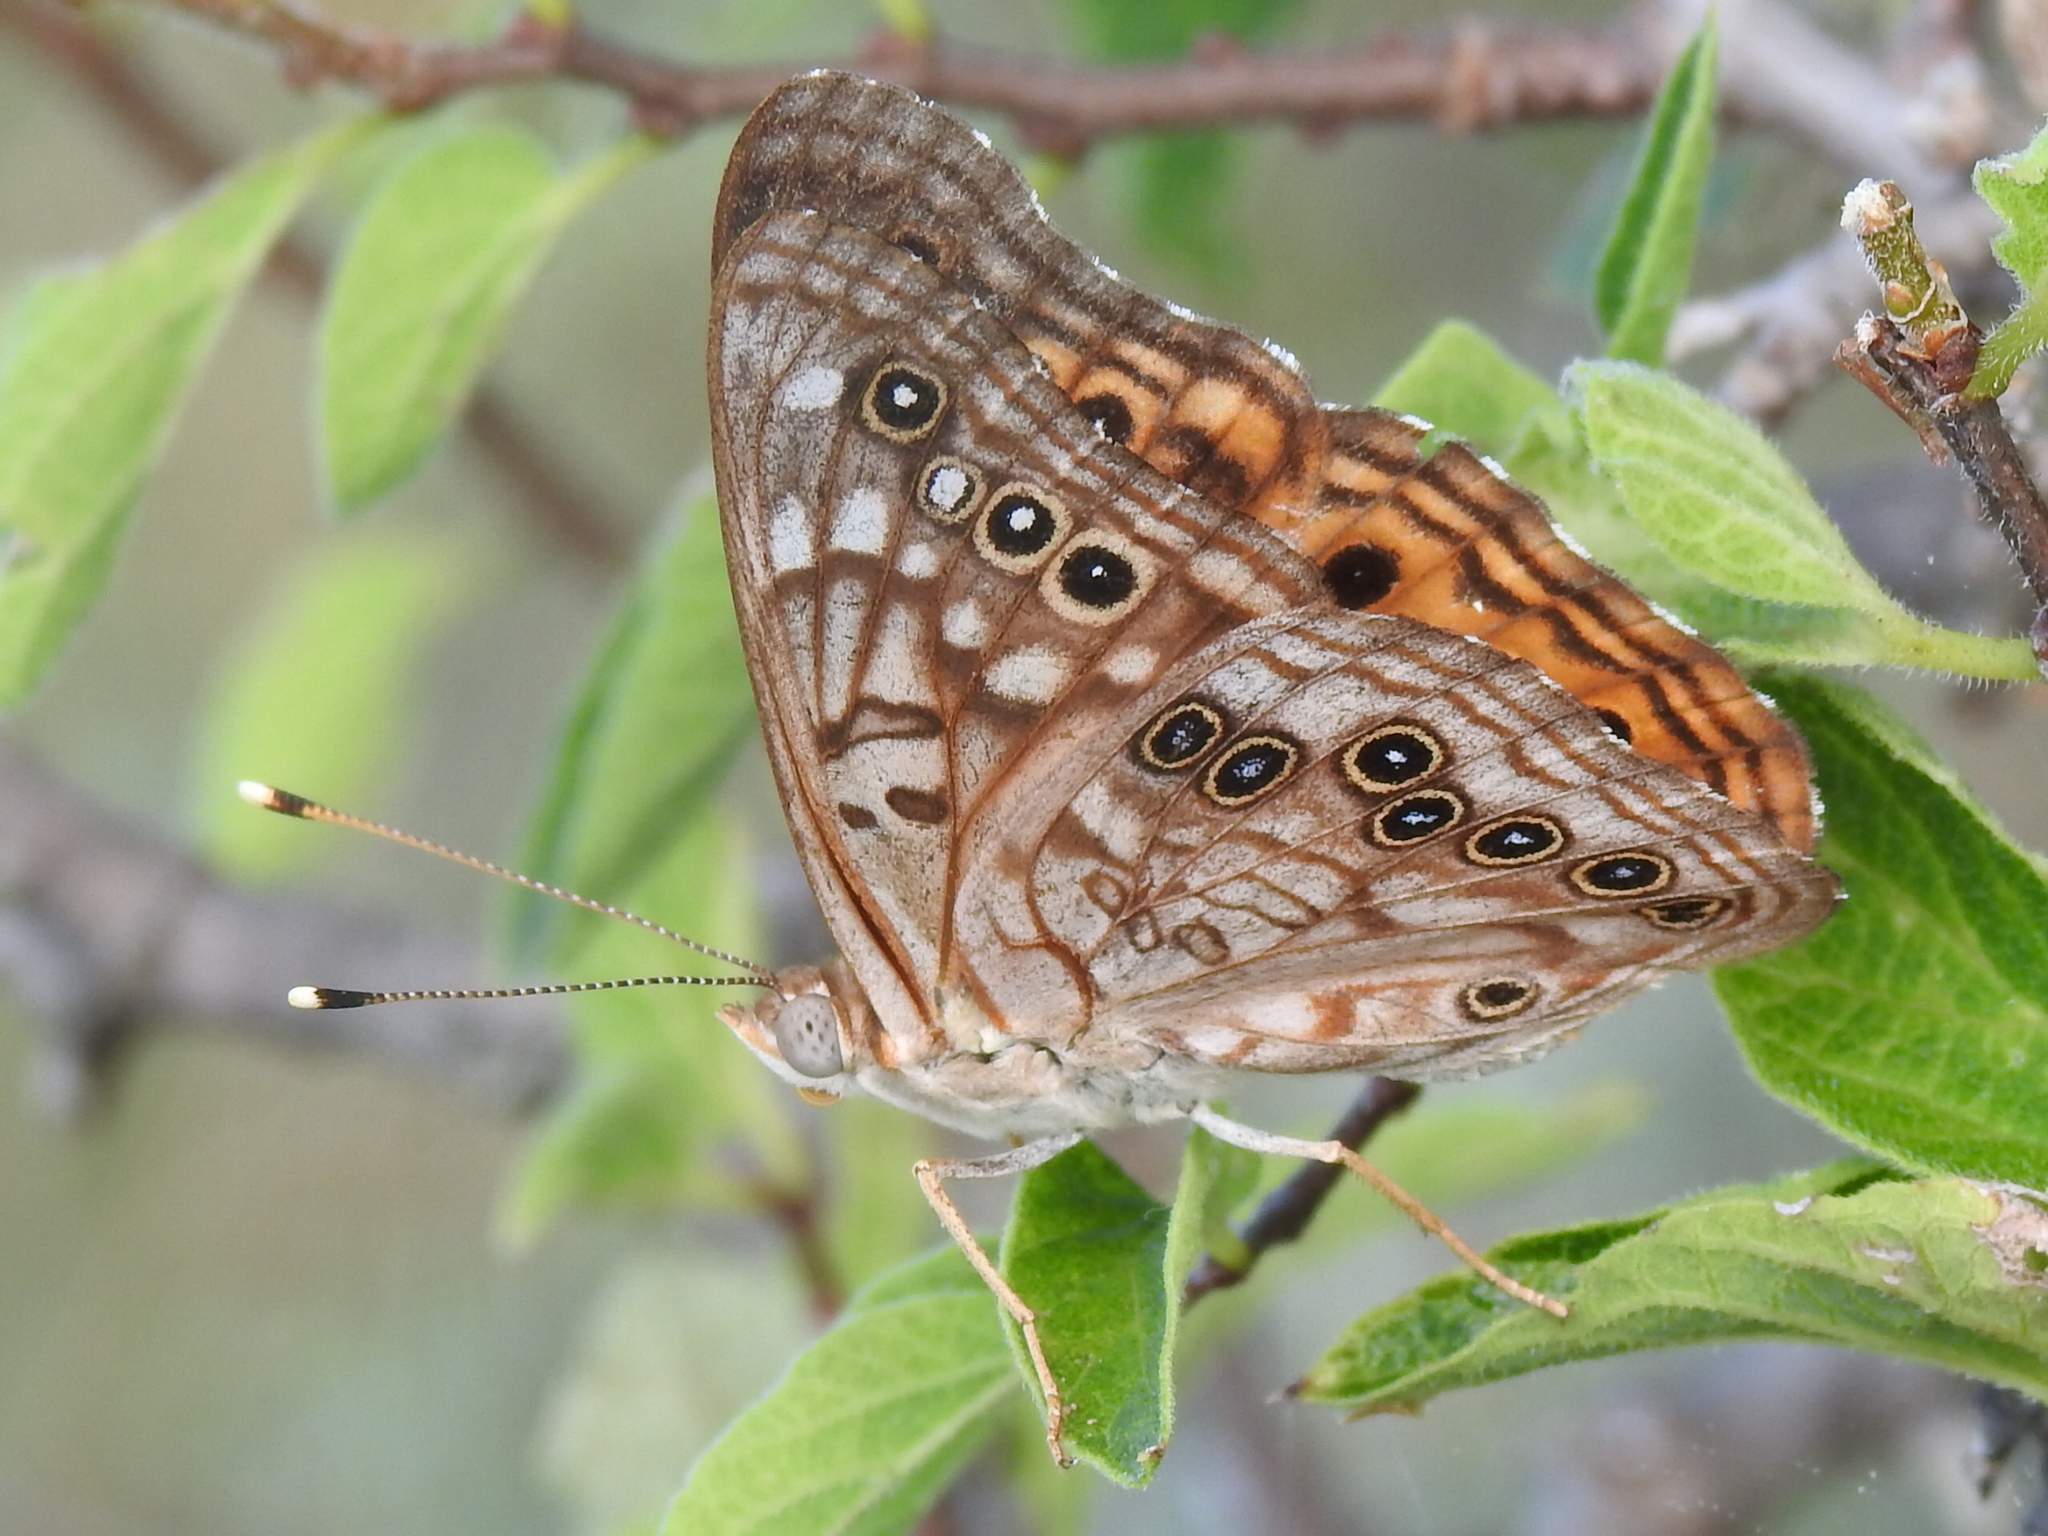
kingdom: Animalia
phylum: Arthropoda
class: Insecta
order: Lepidoptera
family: Nymphalidae
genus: Asterocampa
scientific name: Asterocampa celtis
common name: Hackberry emperor
